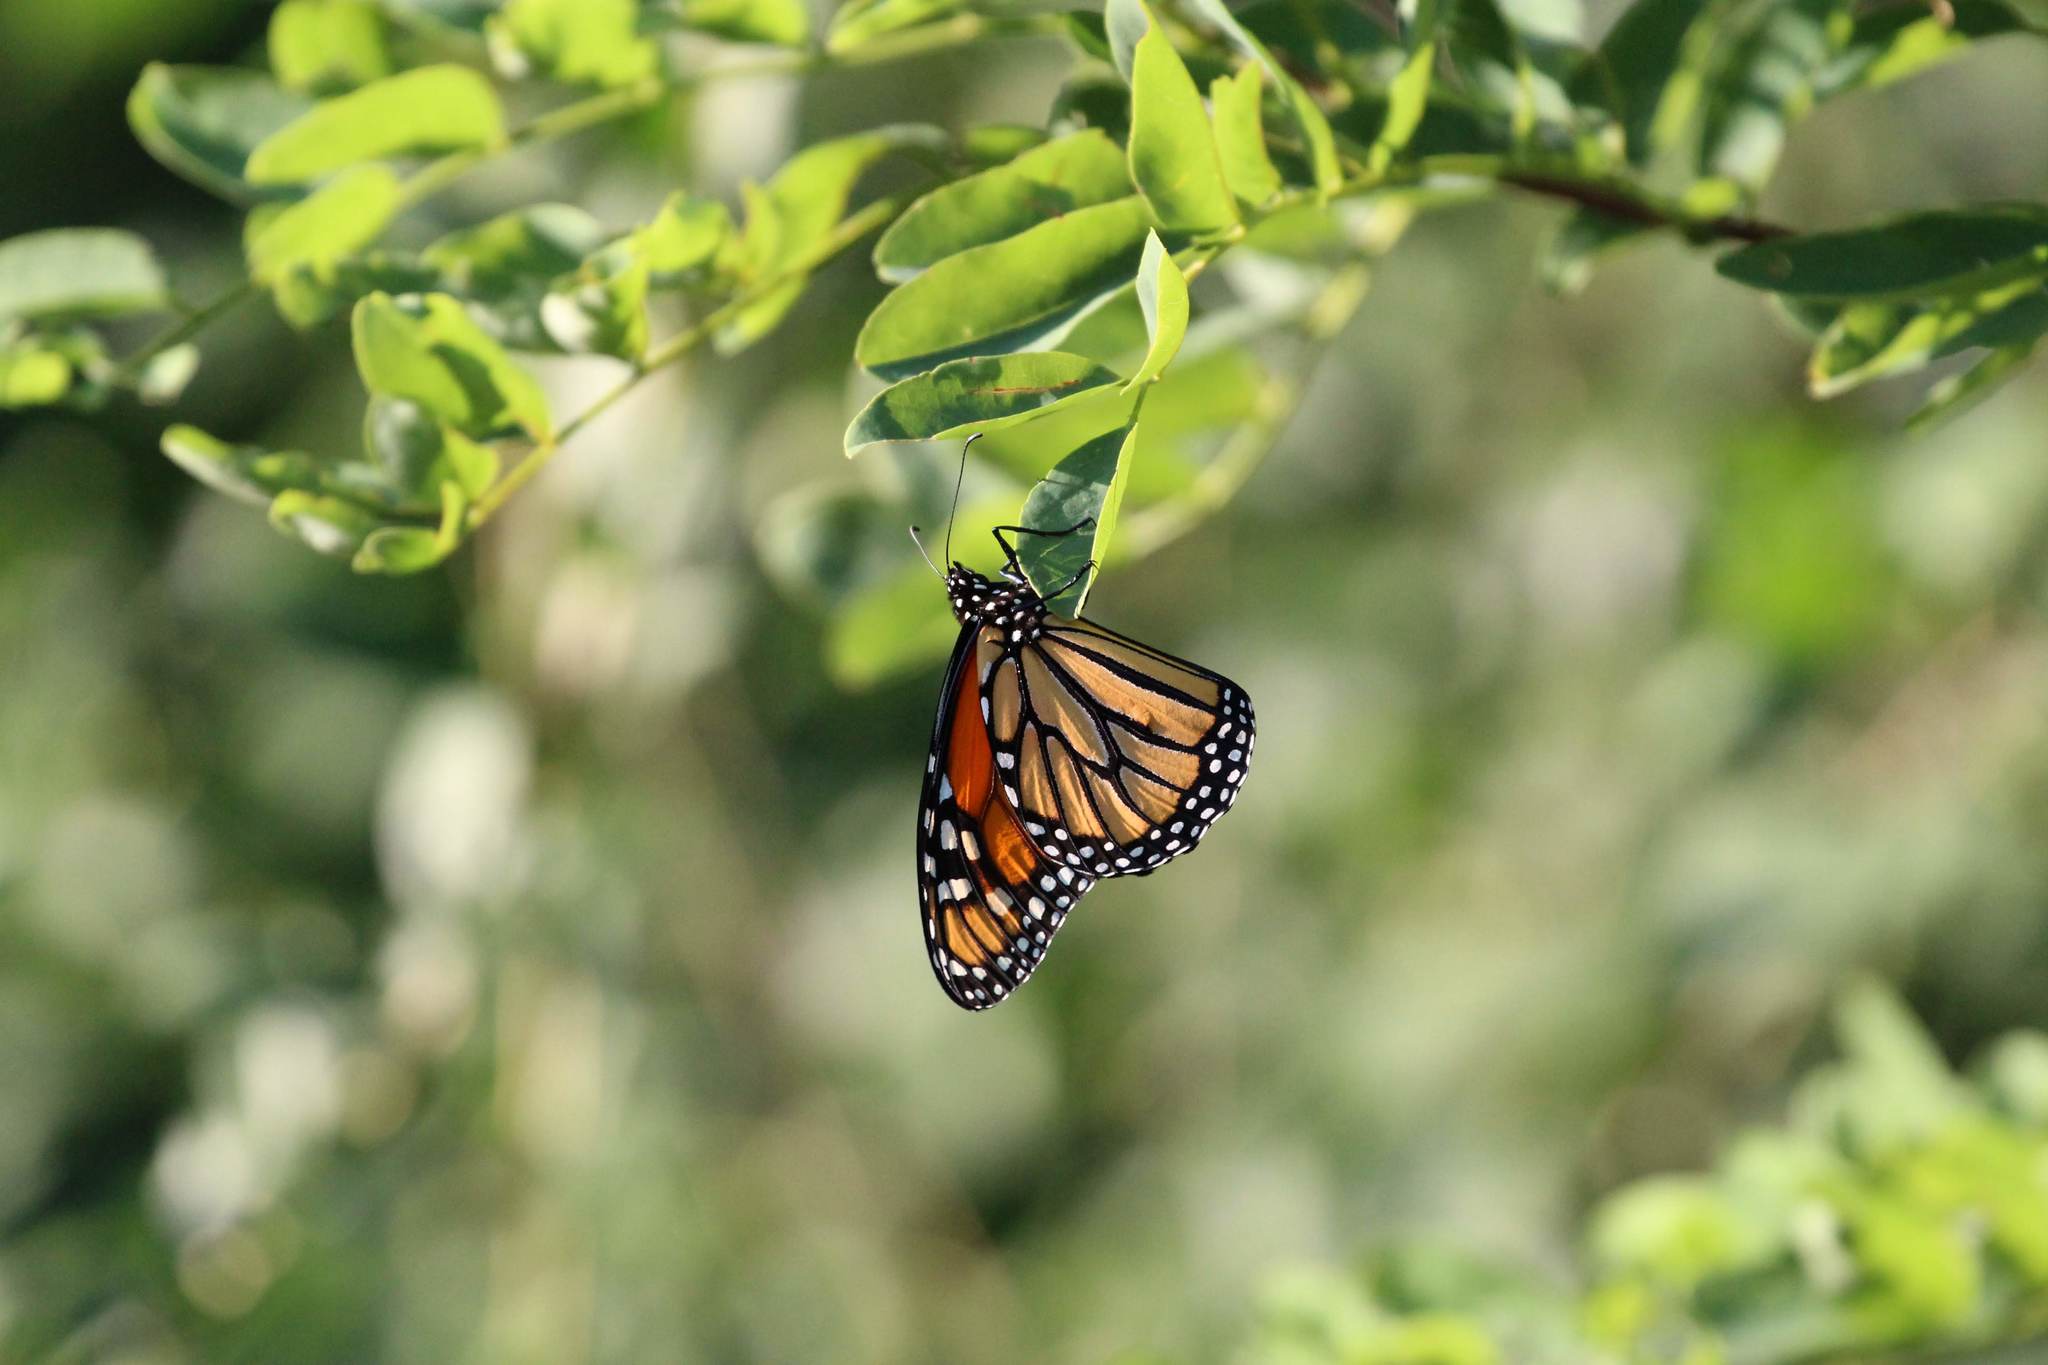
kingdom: Animalia
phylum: Arthropoda
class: Insecta
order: Lepidoptera
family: Nymphalidae
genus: Danaus
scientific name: Danaus plexippus
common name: Monarch
